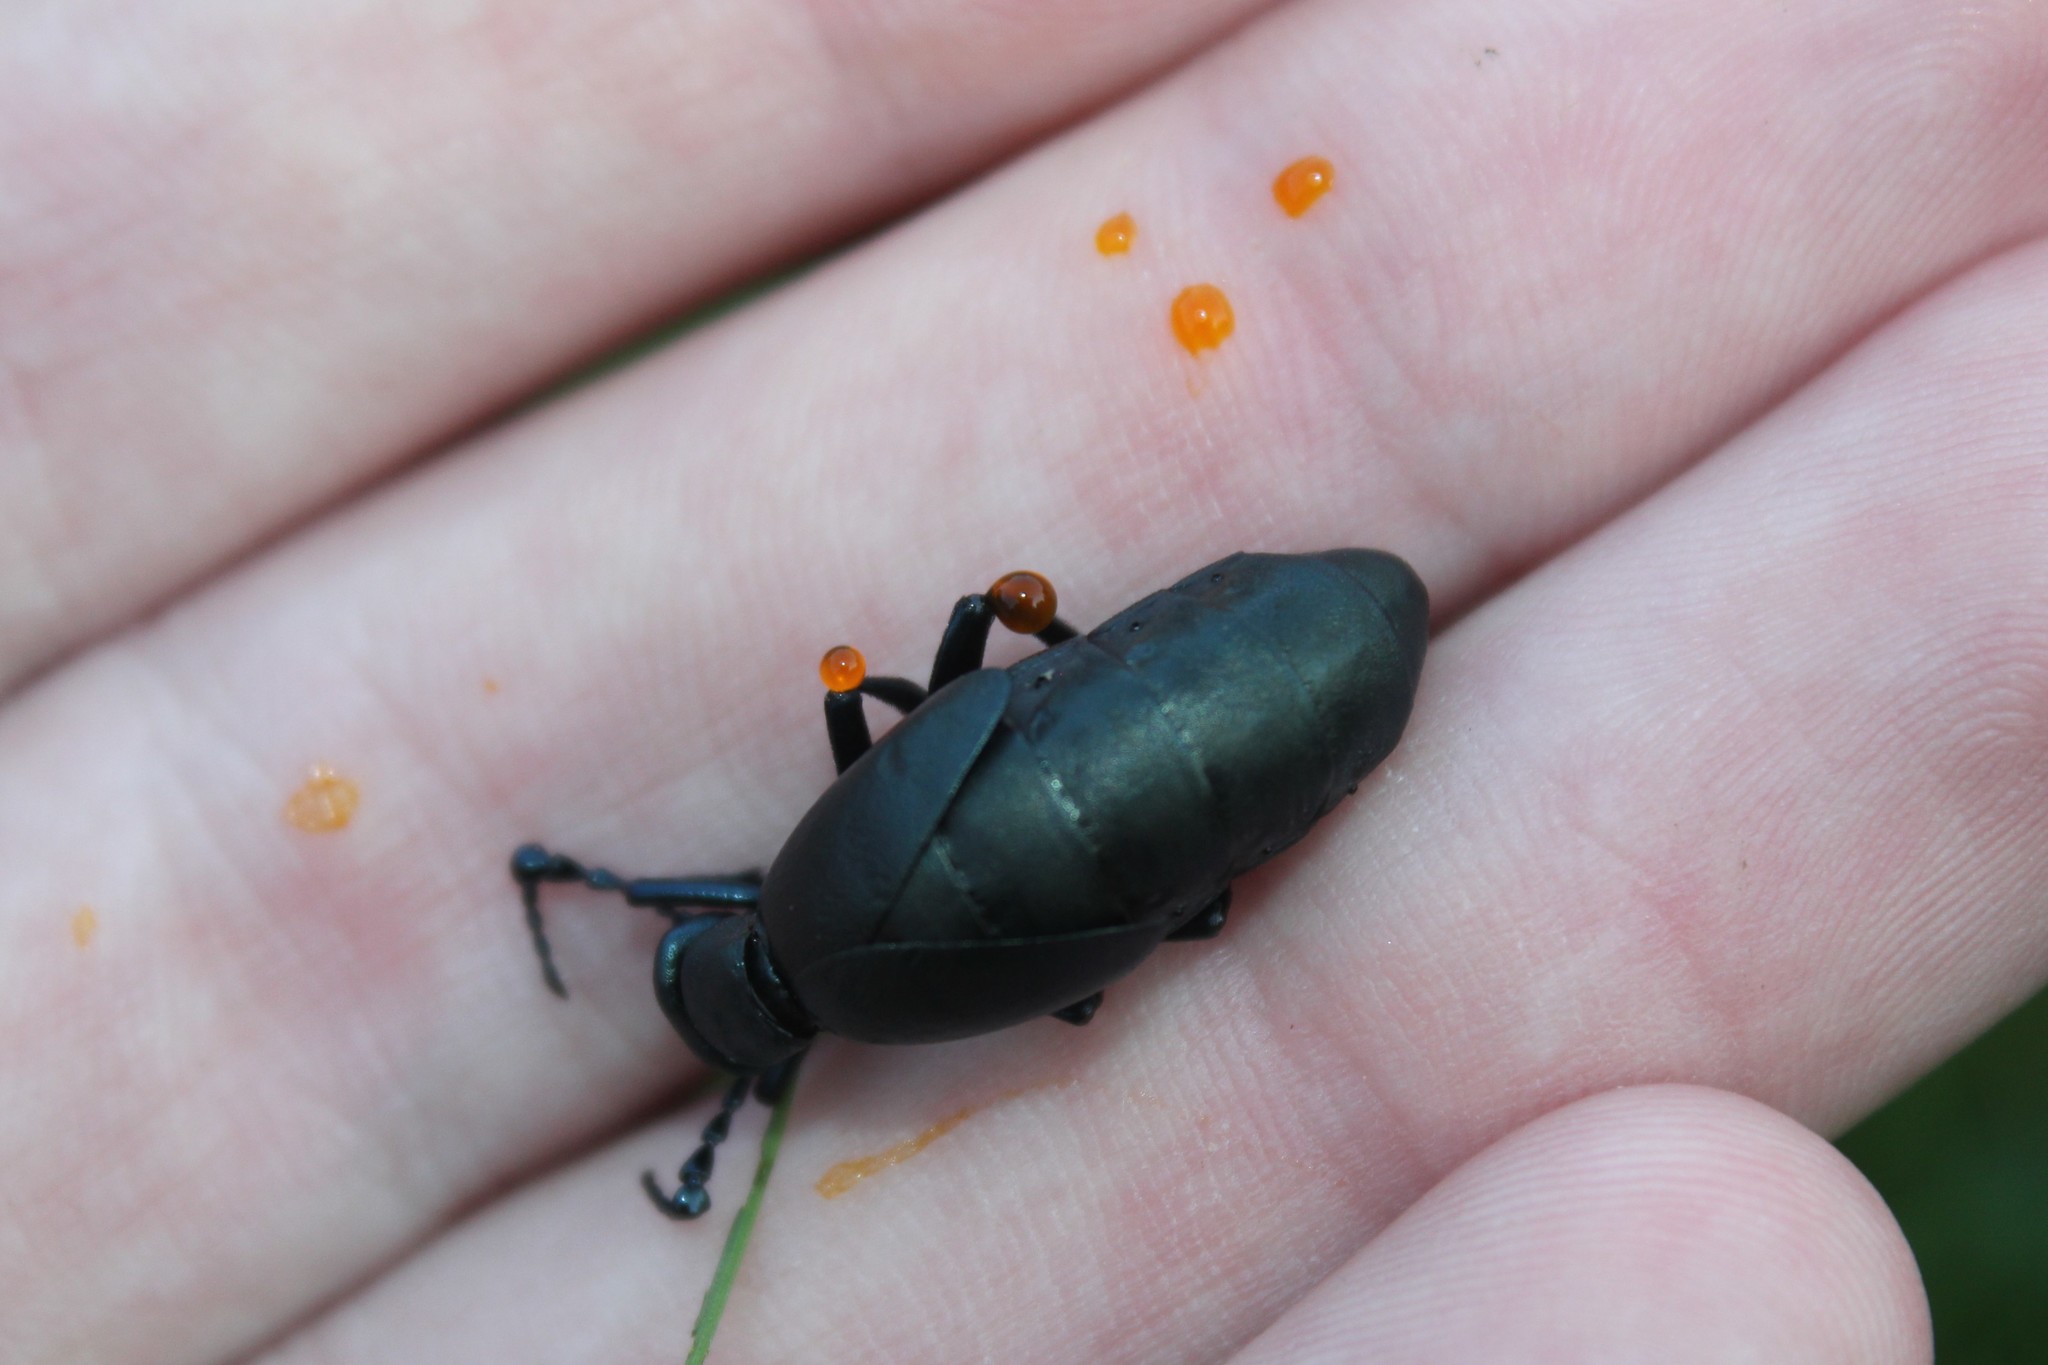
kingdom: Animalia
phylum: Arthropoda
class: Insecta
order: Coleoptera
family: Meloidae
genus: Meloe
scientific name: Meloe campanicollis
